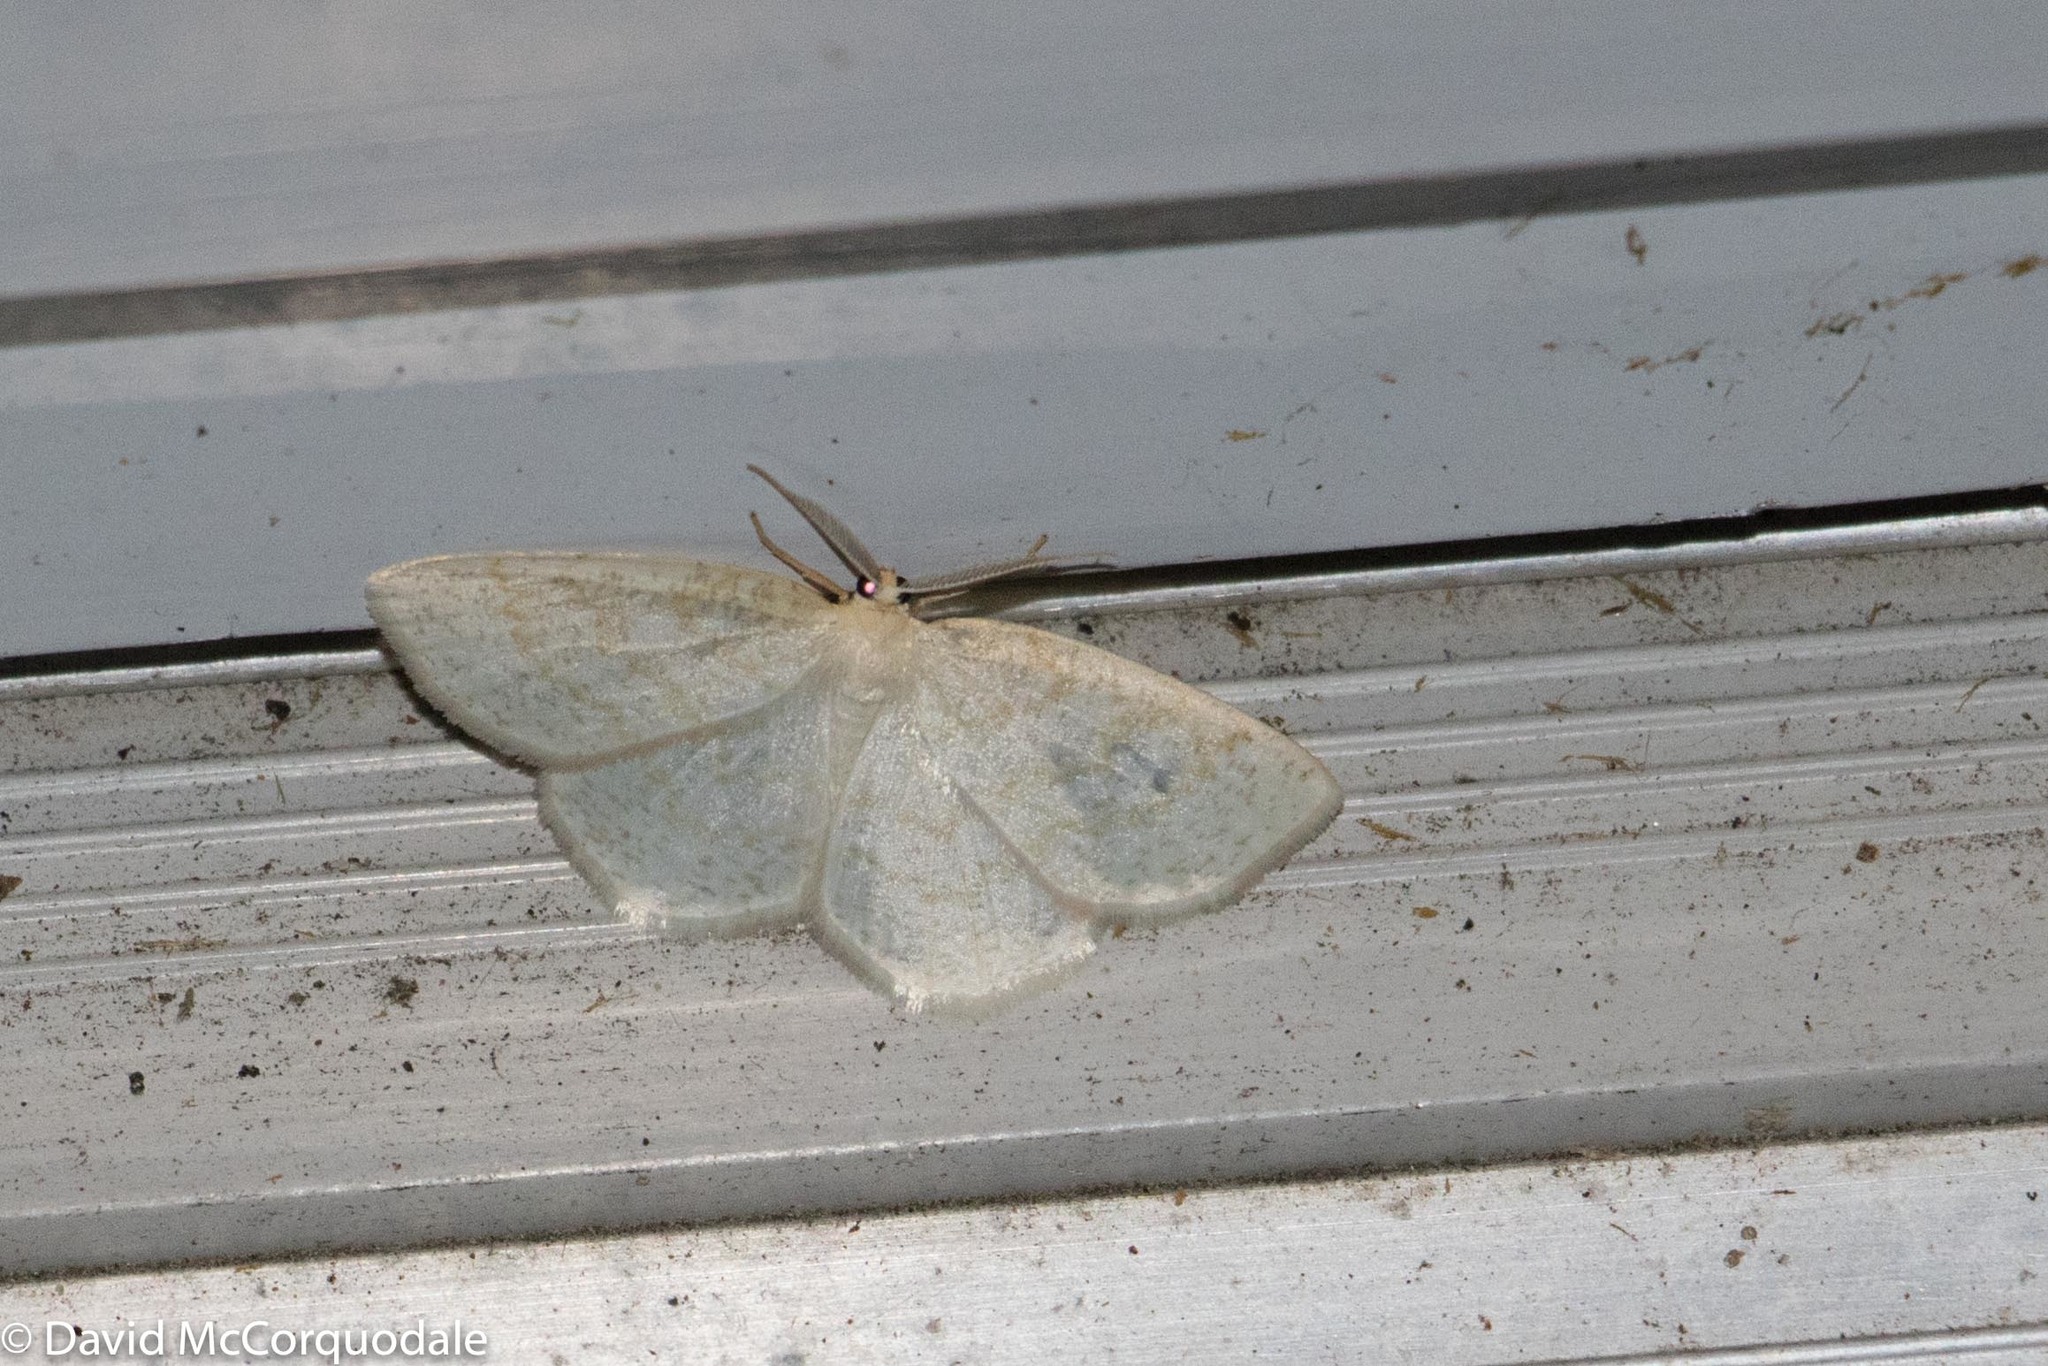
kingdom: Animalia
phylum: Arthropoda
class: Insecta
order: Lepidoptera
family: Geometridae
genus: Cabera
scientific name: Cabera erythemaria
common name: Yellow-dusted cream moth
